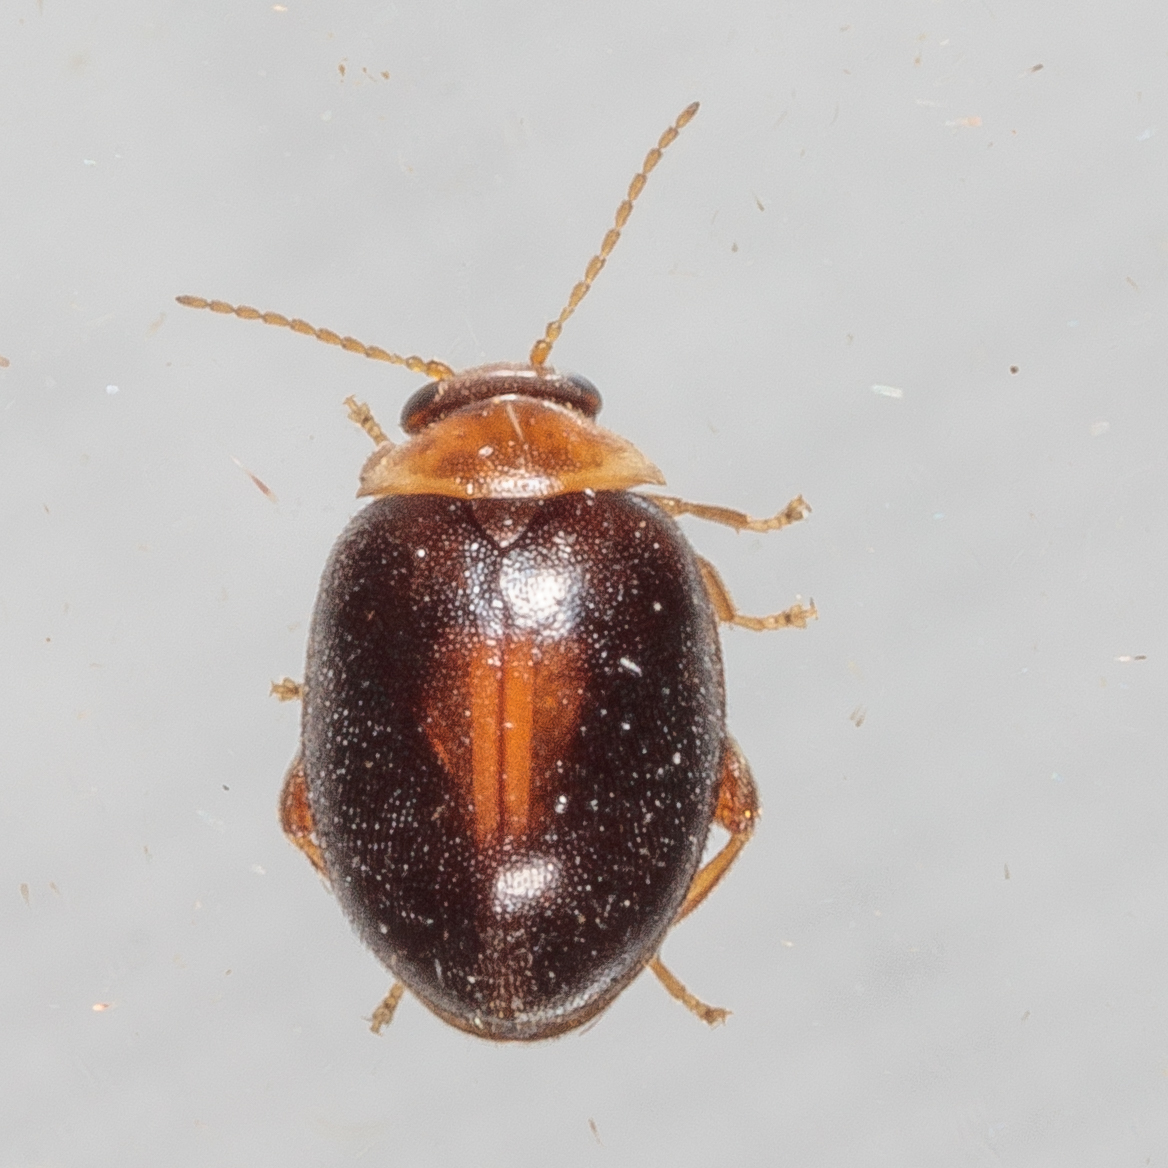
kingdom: Animalia
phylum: Arthropoda
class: Insecta
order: Coleoptera
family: Scirtidae
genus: Scirtes
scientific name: Scirtes orbiculatus
